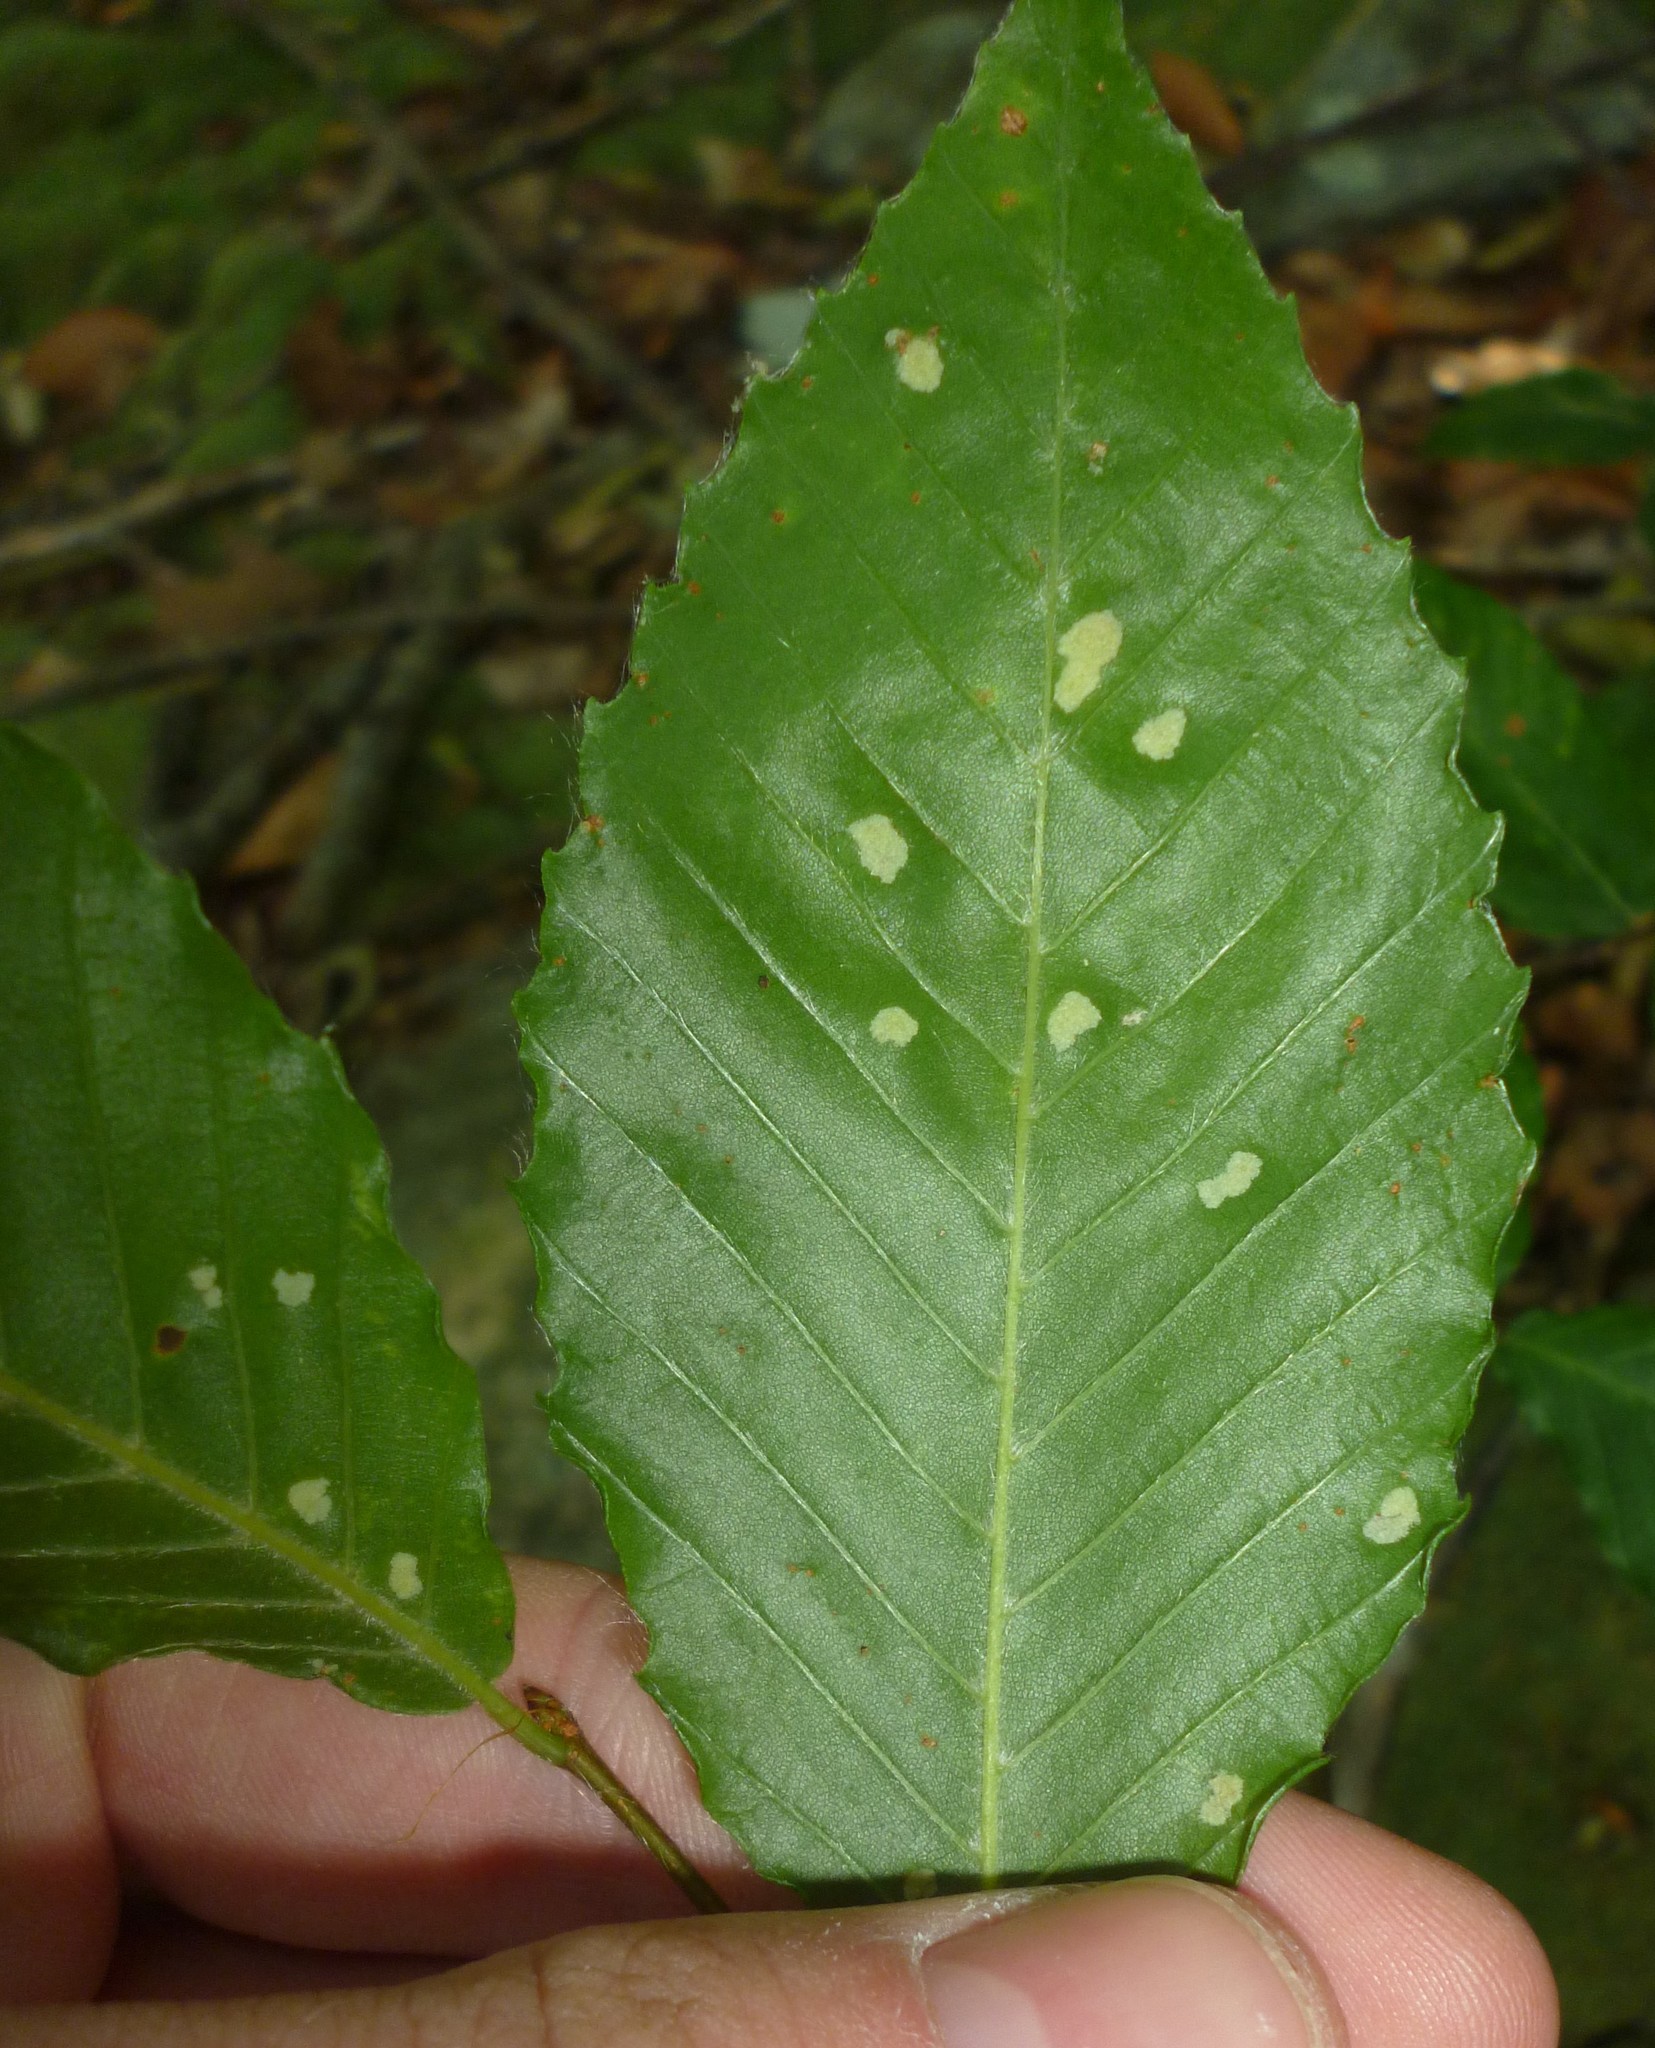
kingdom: Animalia
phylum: Arthropoda
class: Arachnida
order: Trombidiformes
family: Eriophyidae
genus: Acalitus
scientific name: Acalitus
